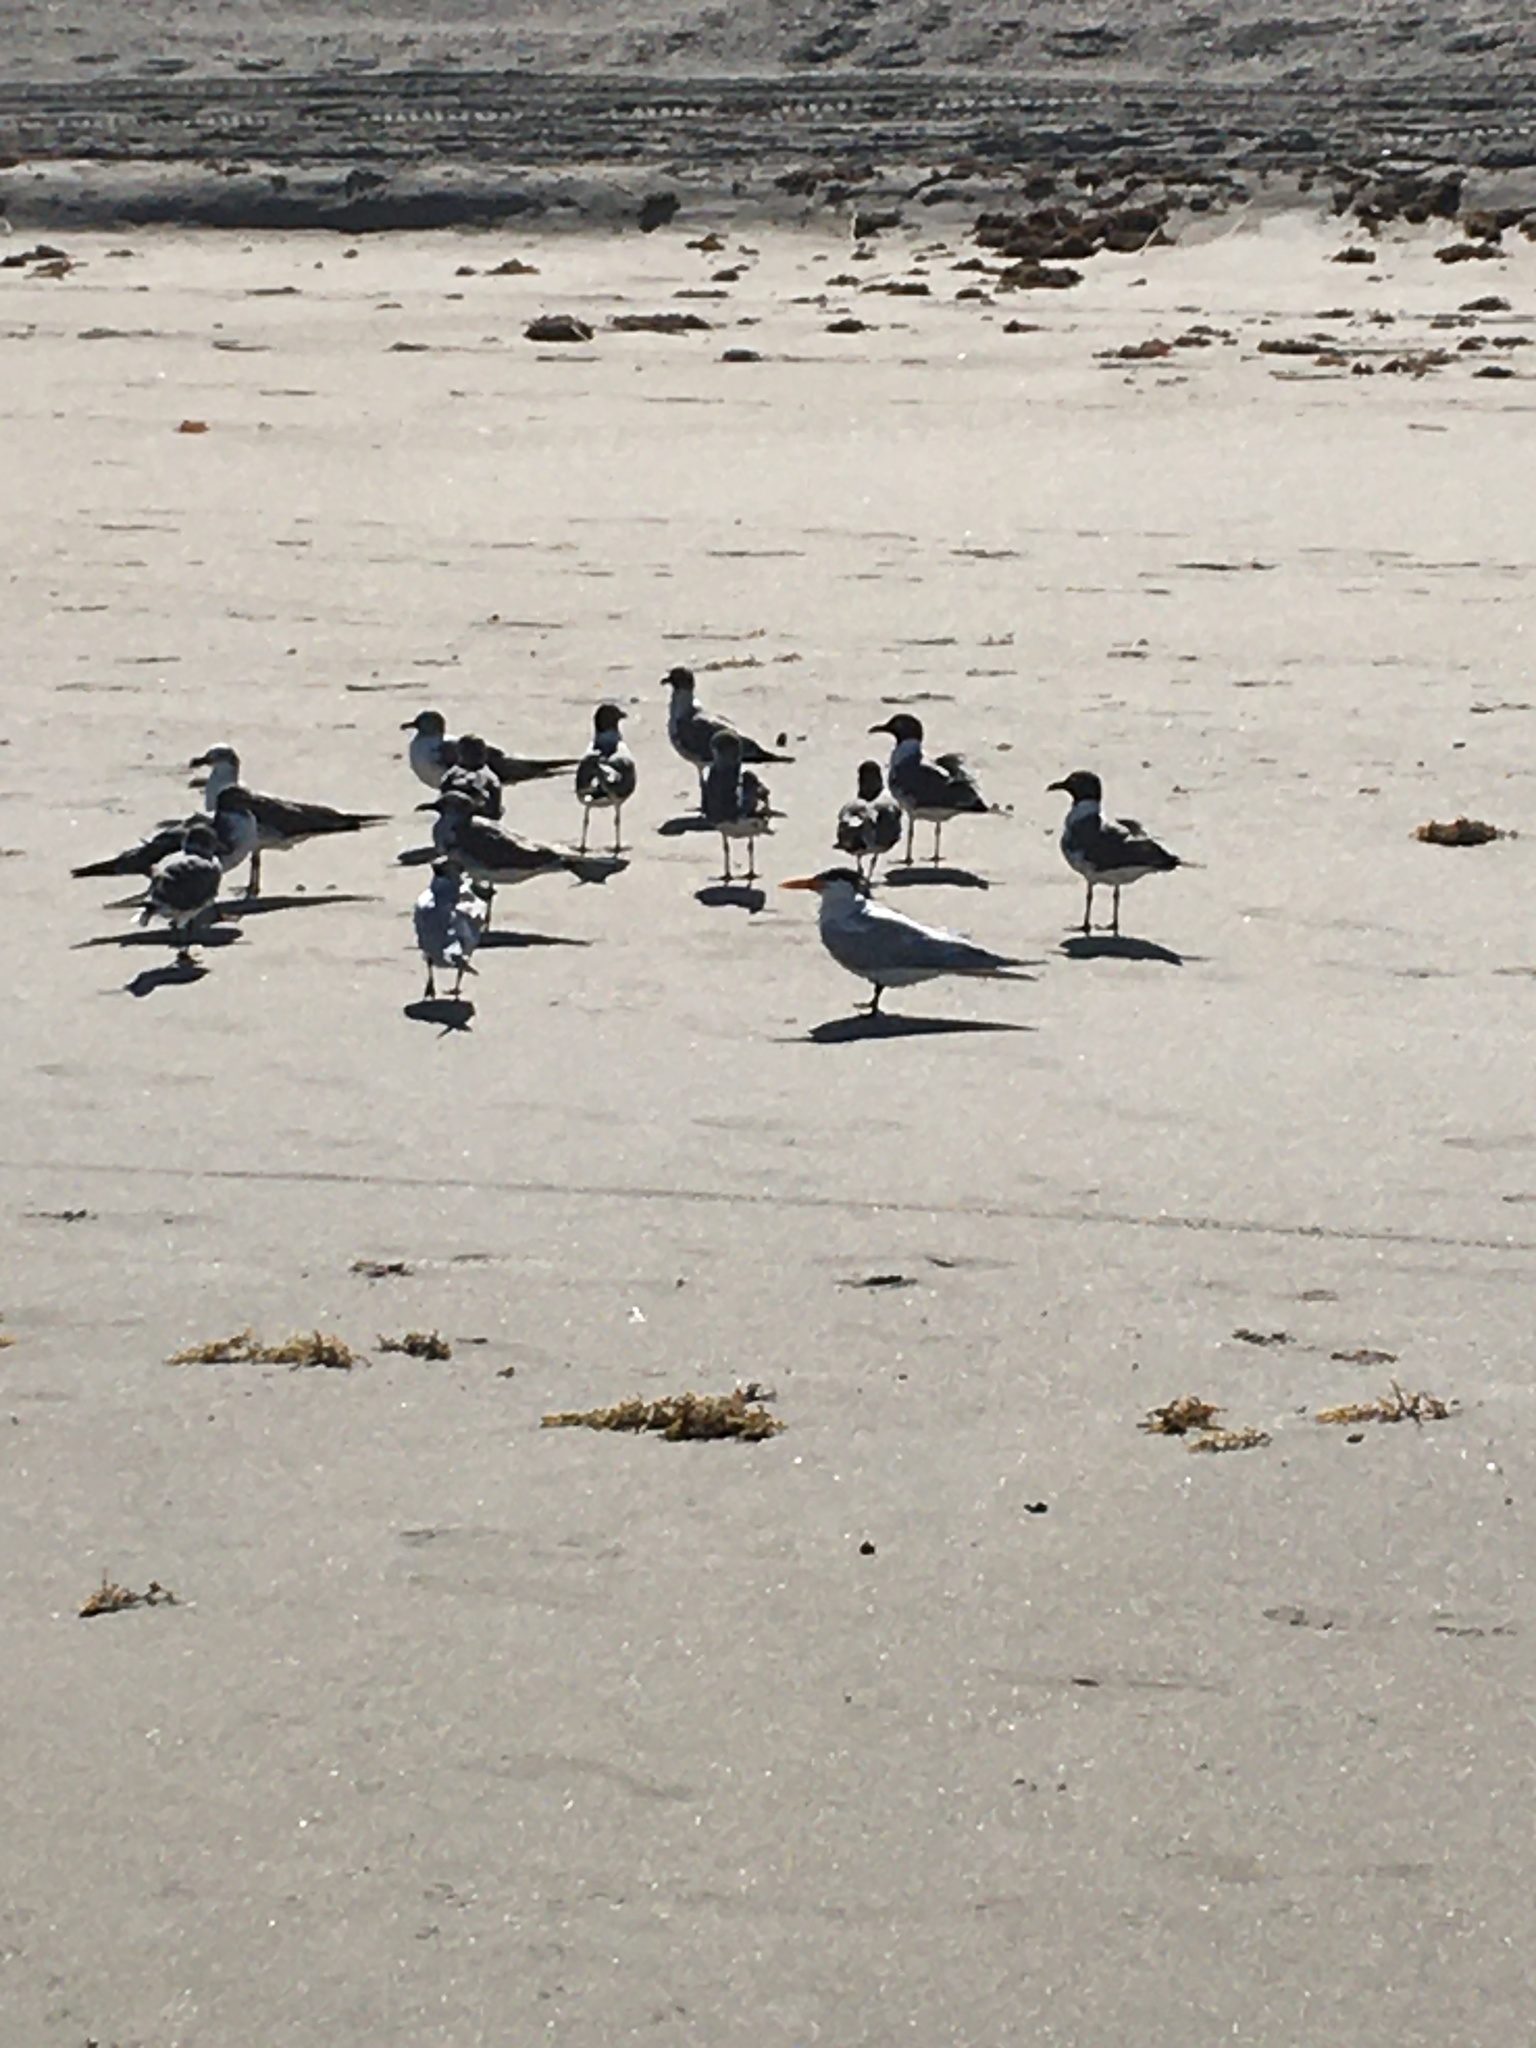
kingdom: Animalia
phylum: Chordata
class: Aves
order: Charadriiformes
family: Laridae
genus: Leucophaeus
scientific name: Leucophaeus atricilla
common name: Laughing gull
